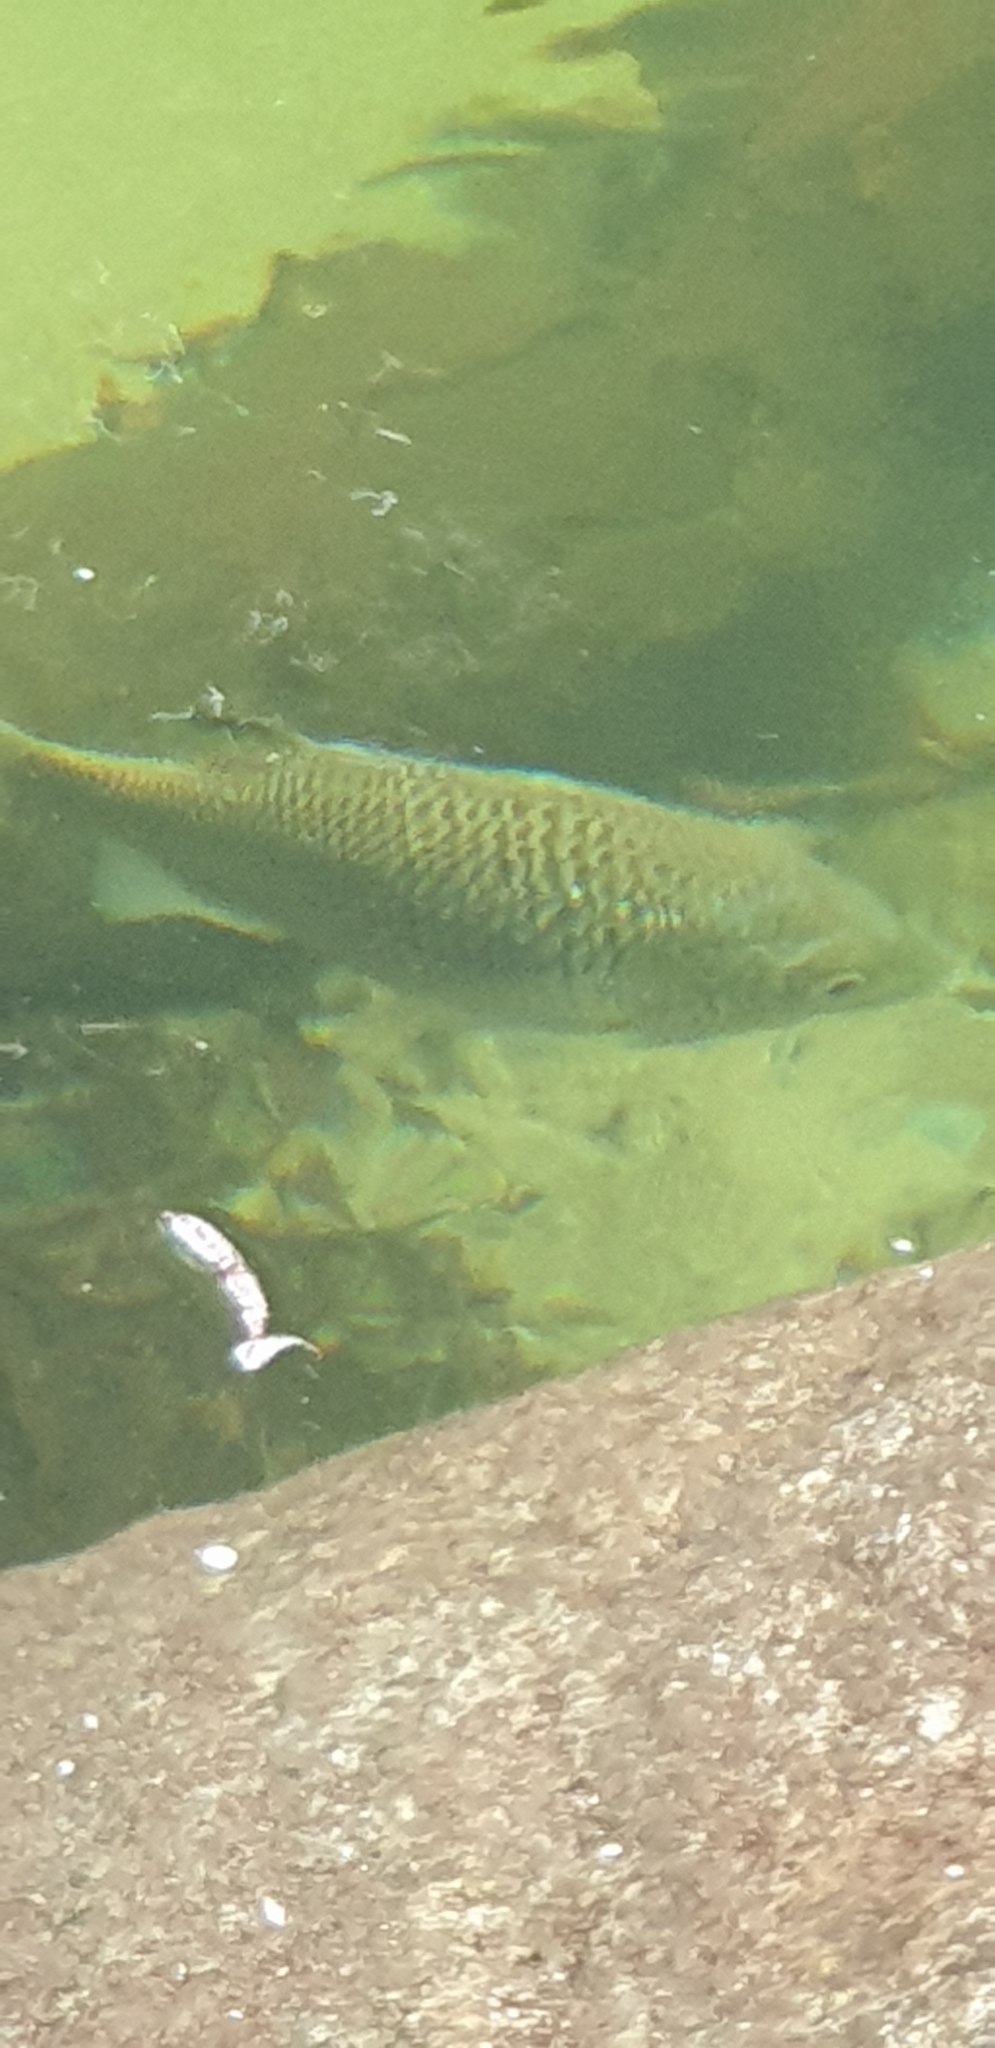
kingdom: Animalia
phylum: Chordata
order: Perciformes
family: Kuhliidae
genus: Kuhlia
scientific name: Kuhlia rupestris
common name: Rock flagtail
